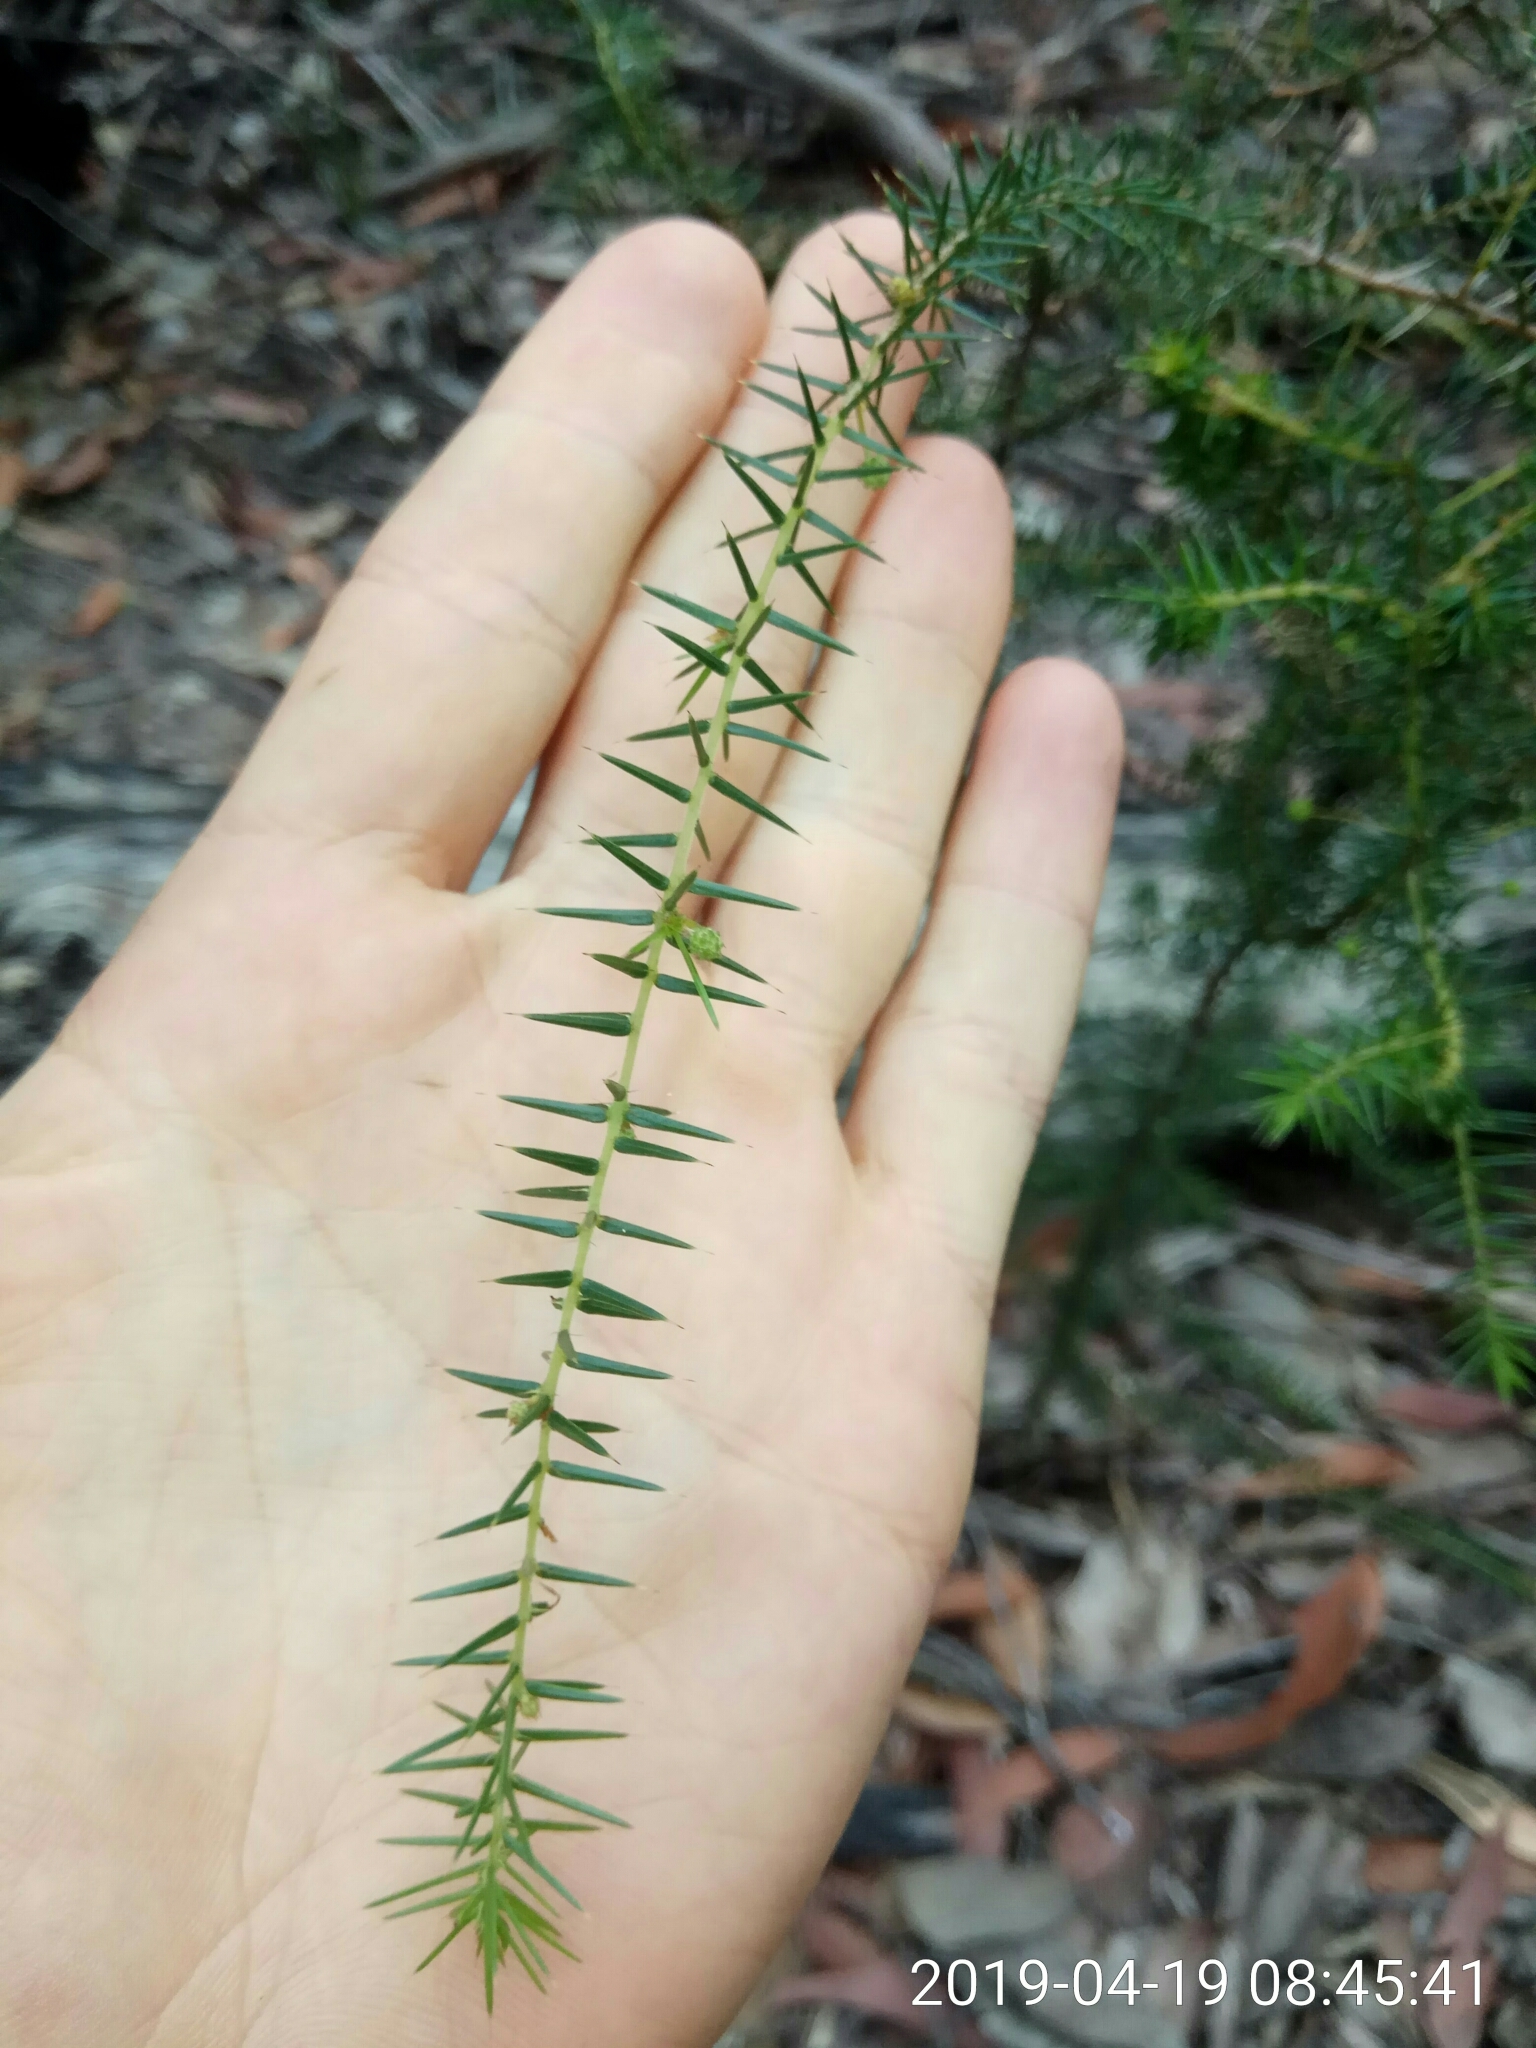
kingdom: Plantae
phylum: Tracheophyta
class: Magnoliopsida
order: Fabales
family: Fabaceae
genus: Acacia
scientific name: Acacia ulicifolia
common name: Juniper wattle
